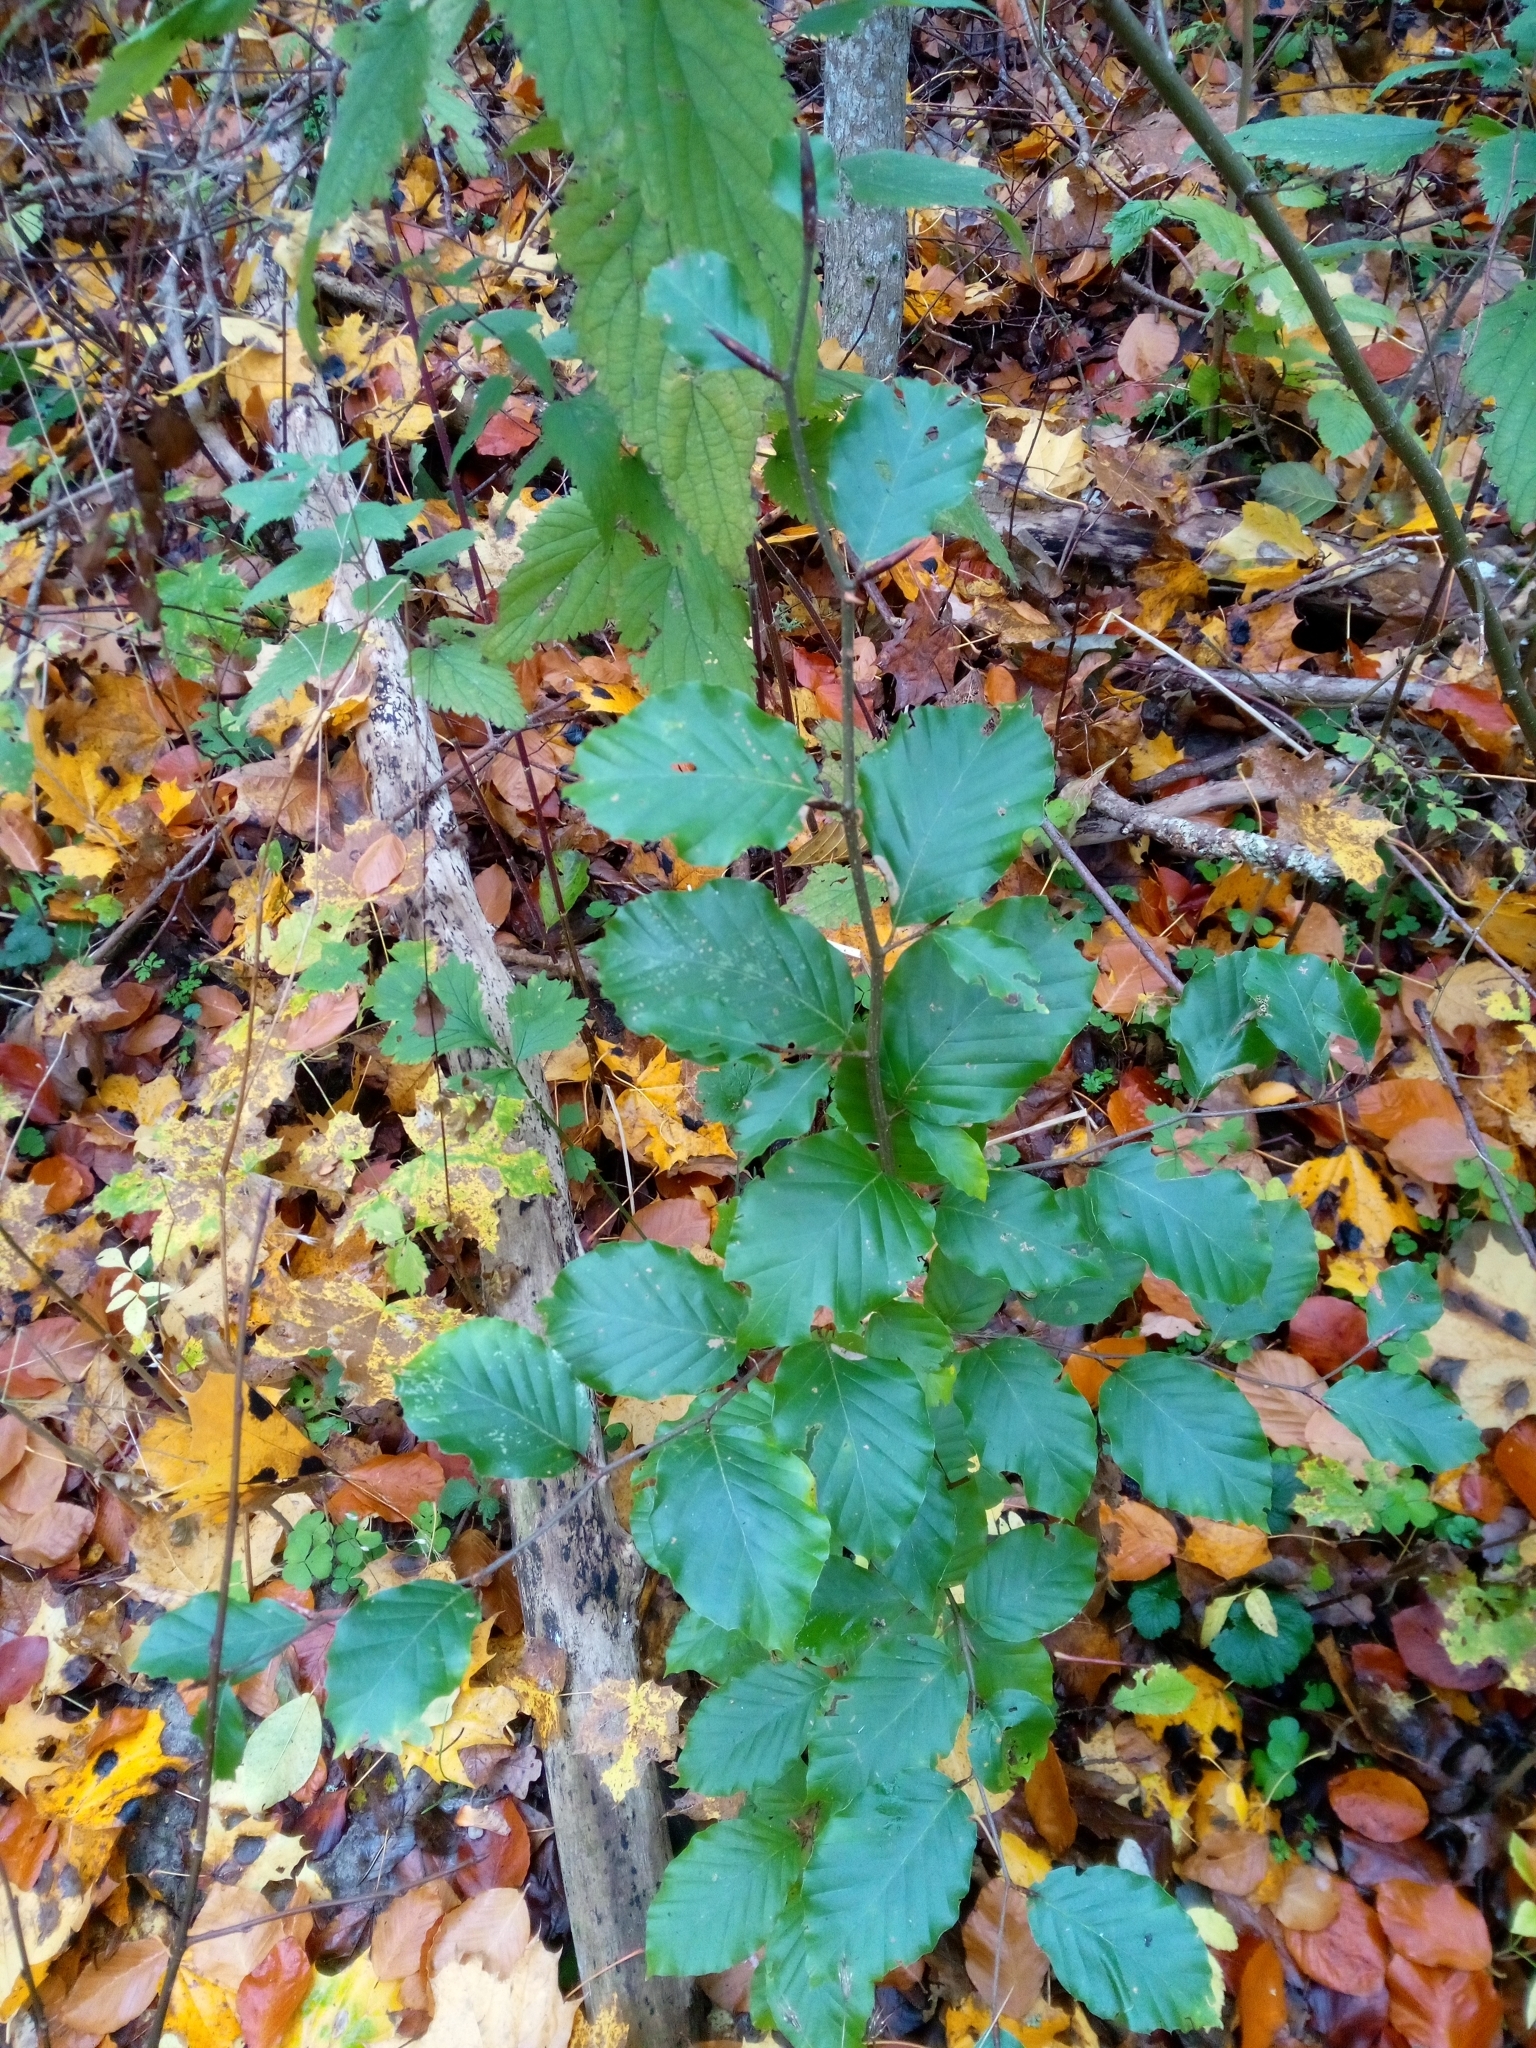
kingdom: Plantae
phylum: Tracheophyta
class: Magnoliopsida
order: Fagales
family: Fagaceae
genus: Fagus
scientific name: Fagus sylvatica
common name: Beech
